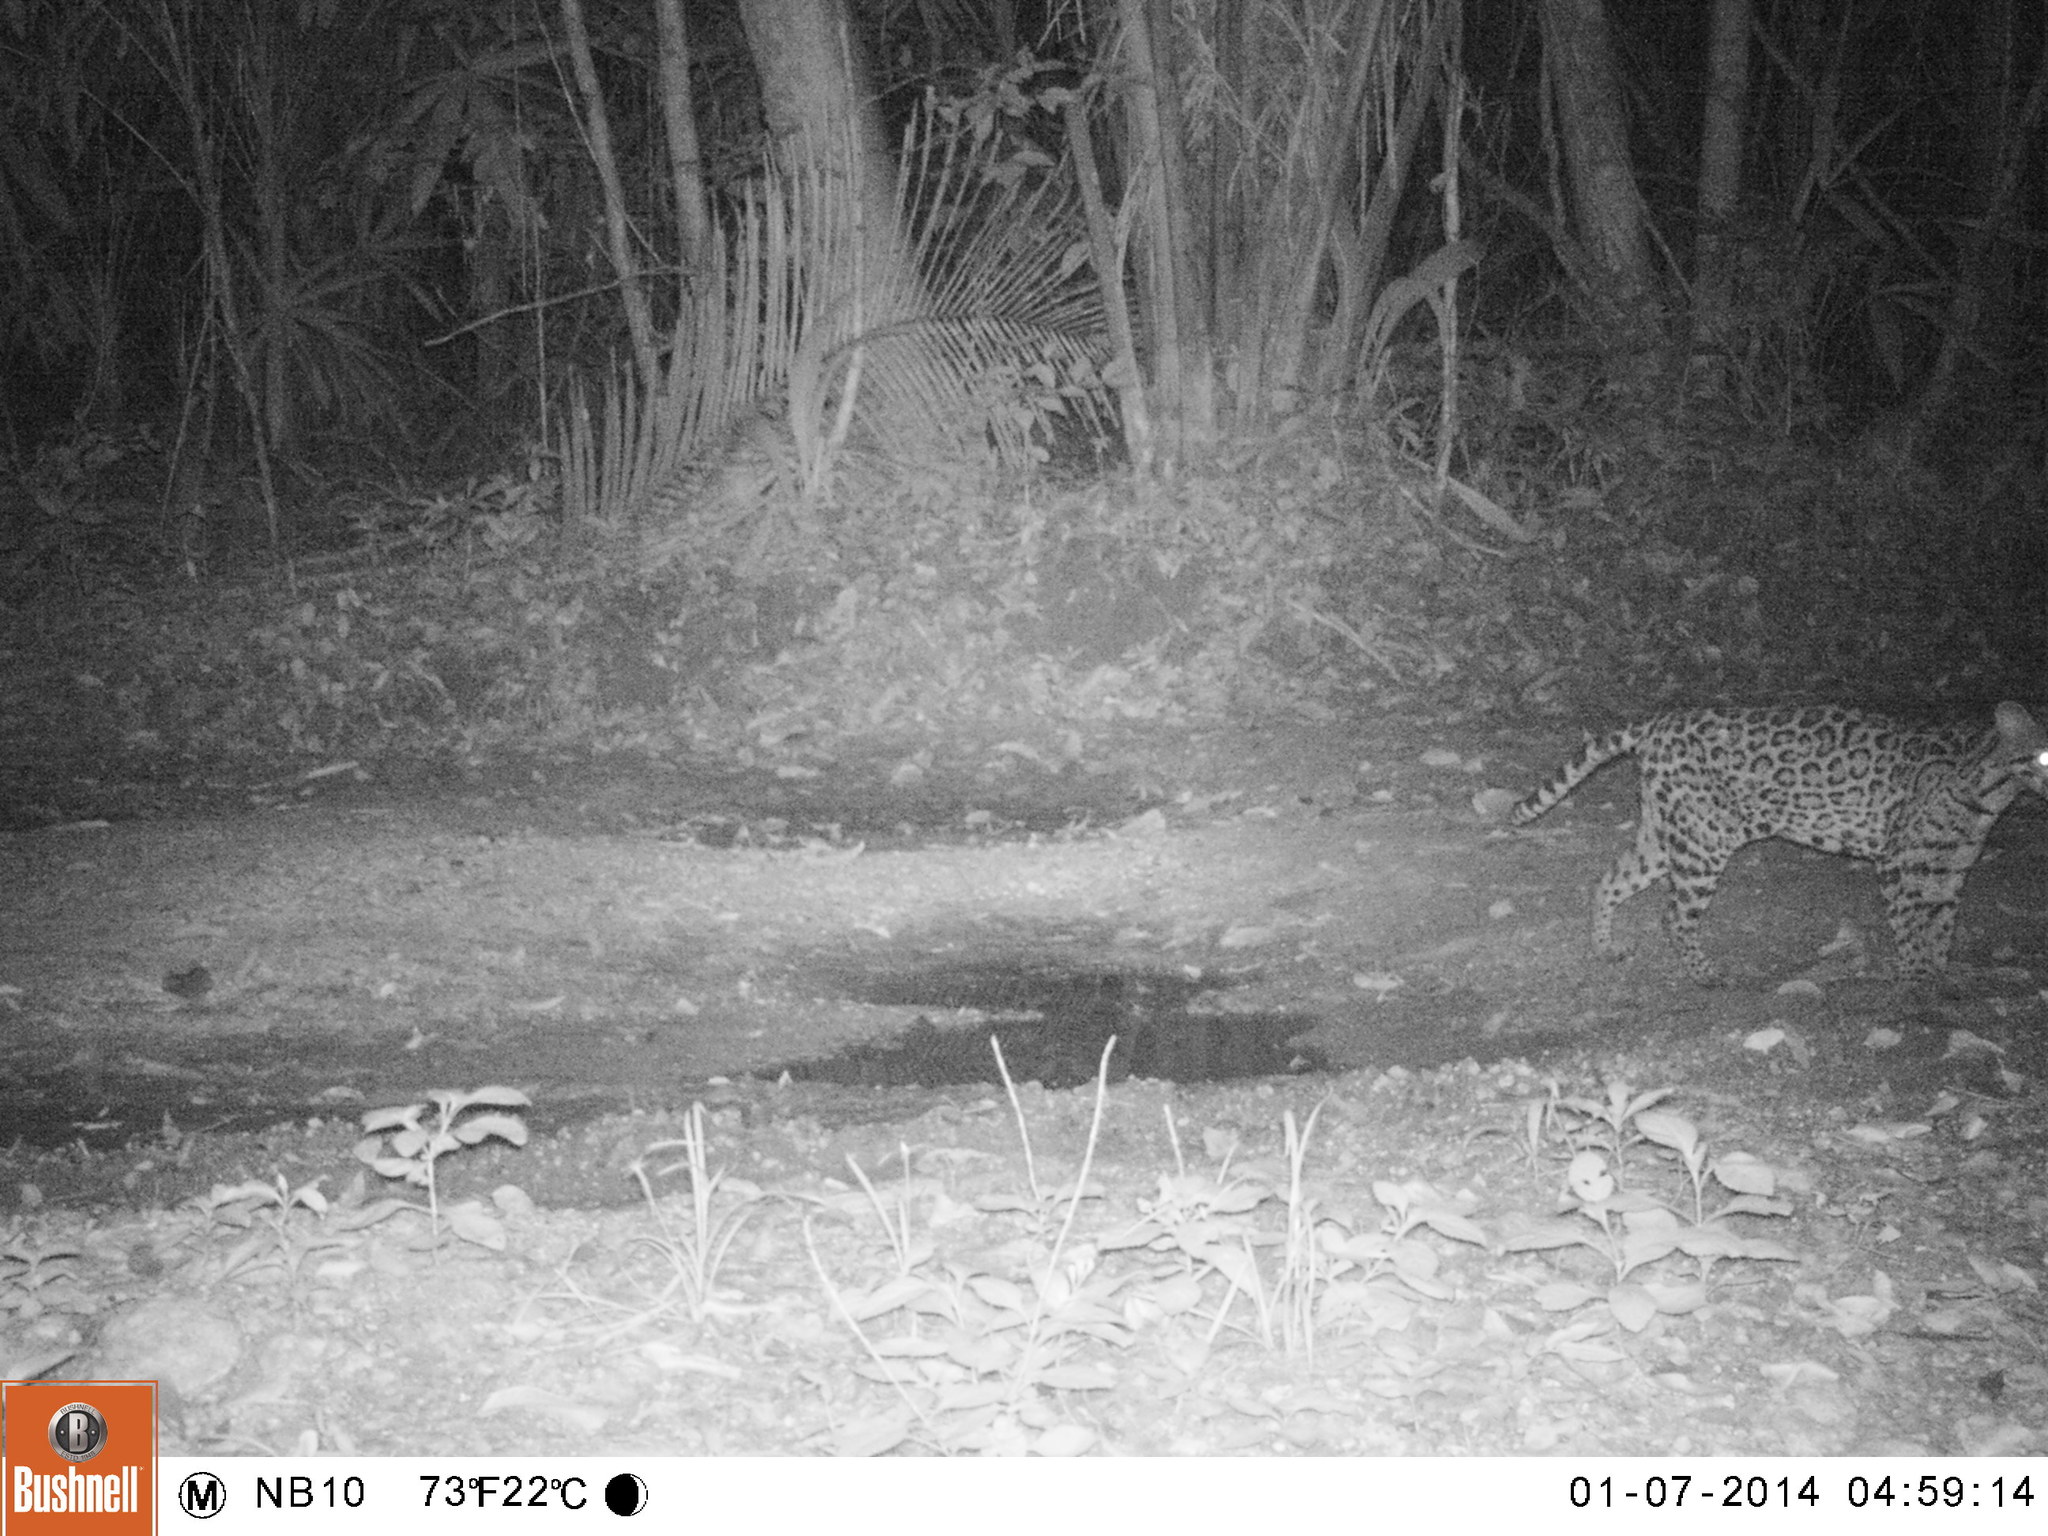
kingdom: Animalia
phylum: Chordata
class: Mammalia
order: Carnivora
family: Felidae
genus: Leopardus
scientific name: Leopardus pardalis
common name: Ocelot
